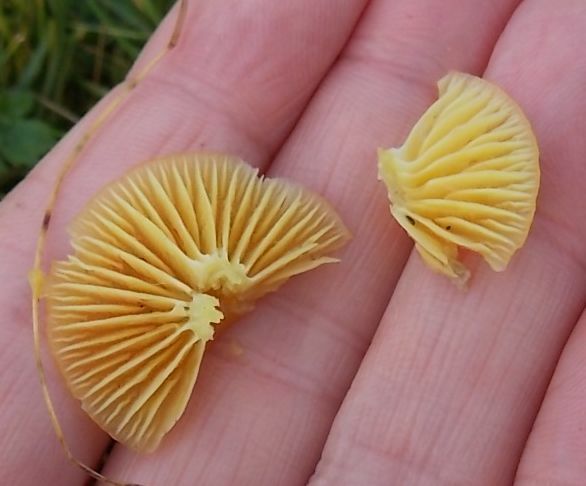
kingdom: Fungi
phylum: Basidiomycota
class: Agaricomycetes
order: Agaricales
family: Hygrophoraceae
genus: Hygrocybe
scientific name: Hygrocybe ceracea
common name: Butter waxcap
